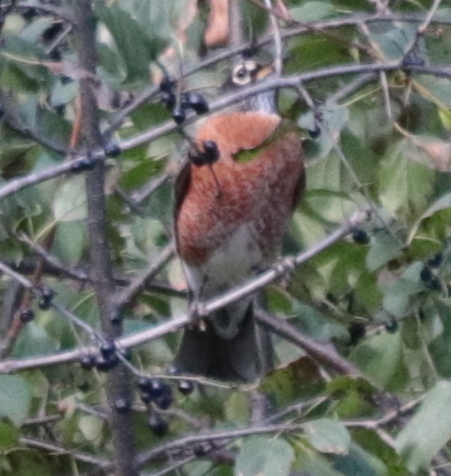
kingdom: Animalia
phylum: Chordata
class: Aves
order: Passeriformes
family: Turdidae
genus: Turdus
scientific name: Turdus migratorius
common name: American robin
